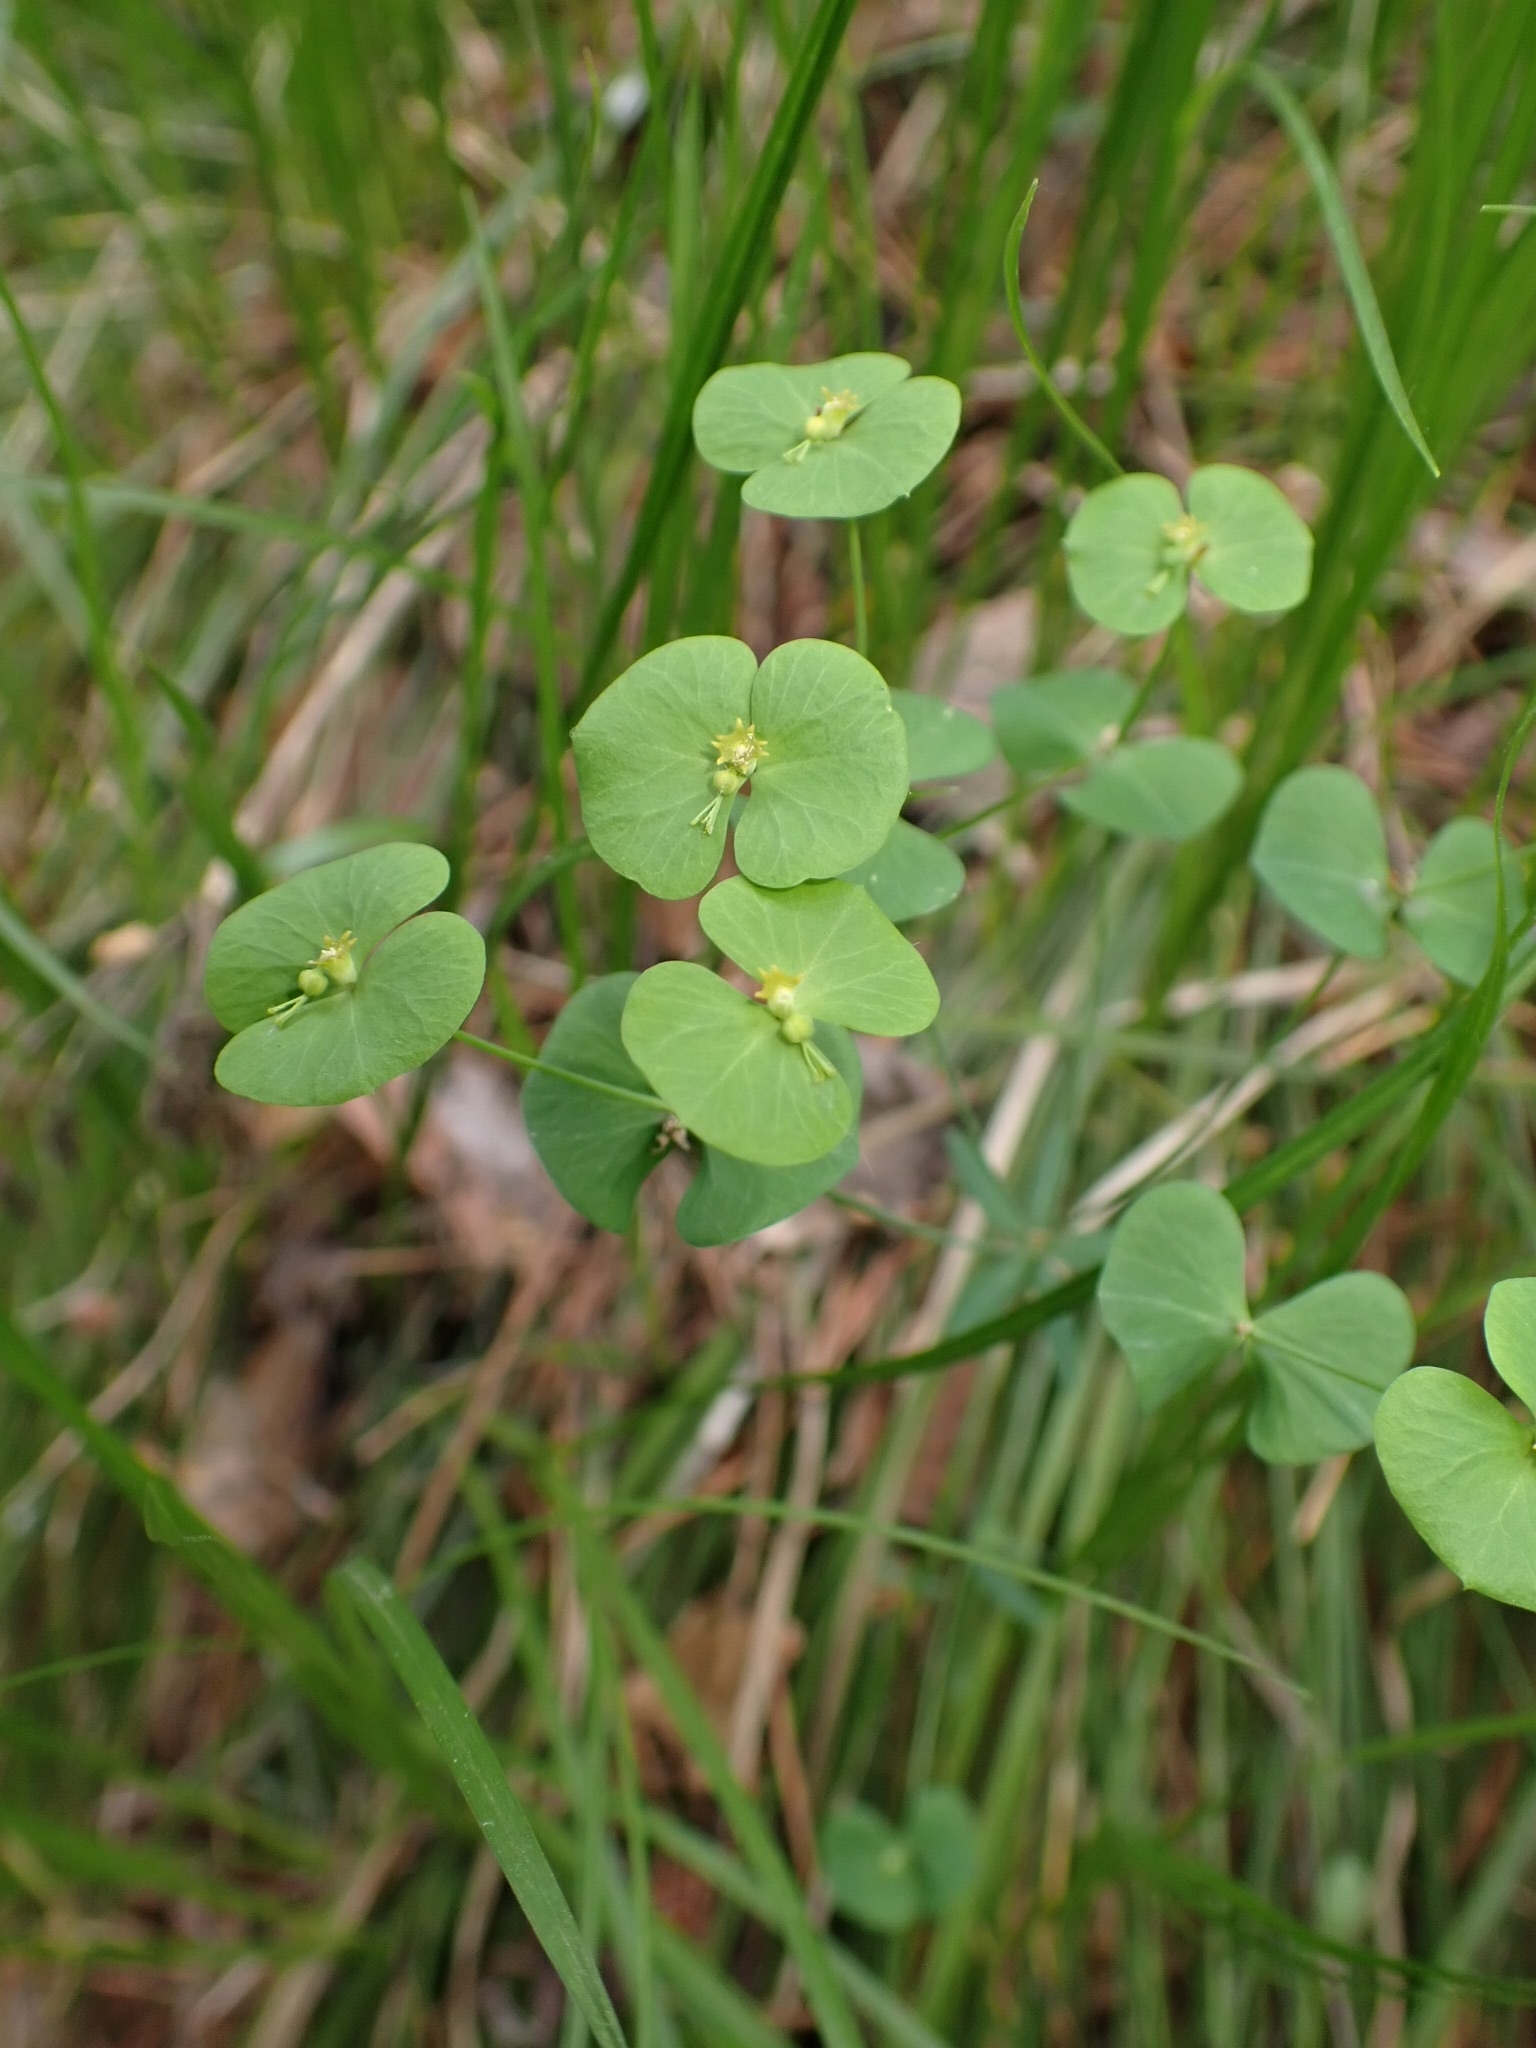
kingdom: Plantae
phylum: Tracheophyta
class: Magnoliopsida
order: Malpighiales
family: Euphorbiaceae
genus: Euphorbia
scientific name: Euphorbia borealis
